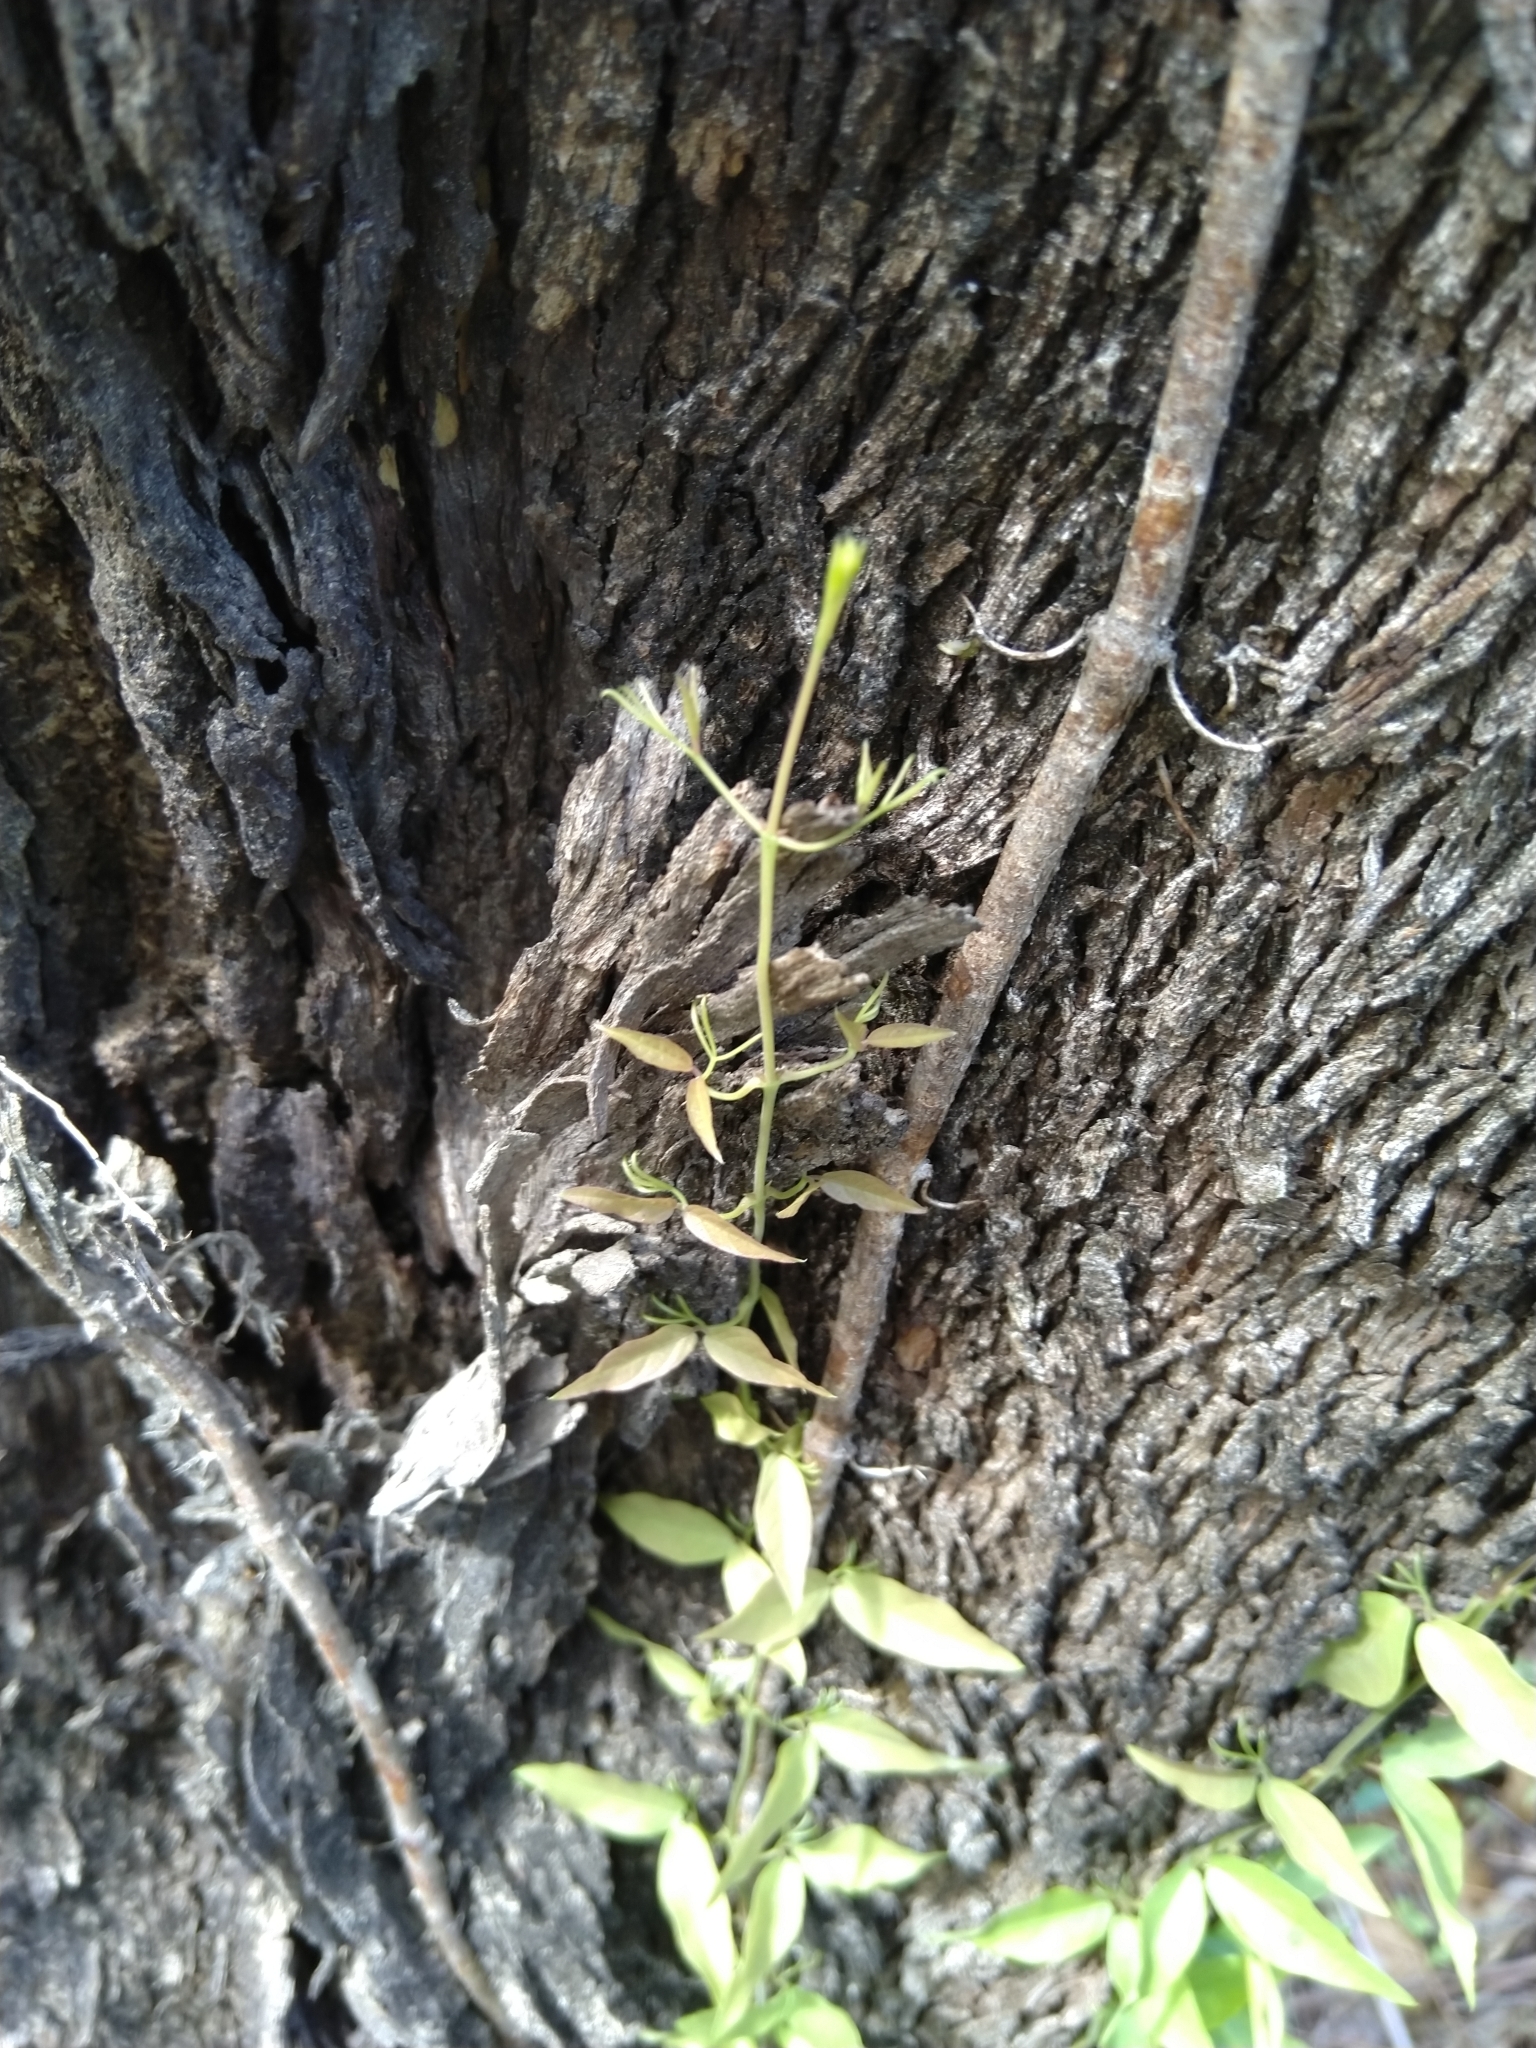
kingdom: Plantae
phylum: Tracheophyta
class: Magnoliopsida
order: Lamiales
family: Bignoniaceae
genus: Dolichandra
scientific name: Dolichandra unguis-cati
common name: Catclaw vine
